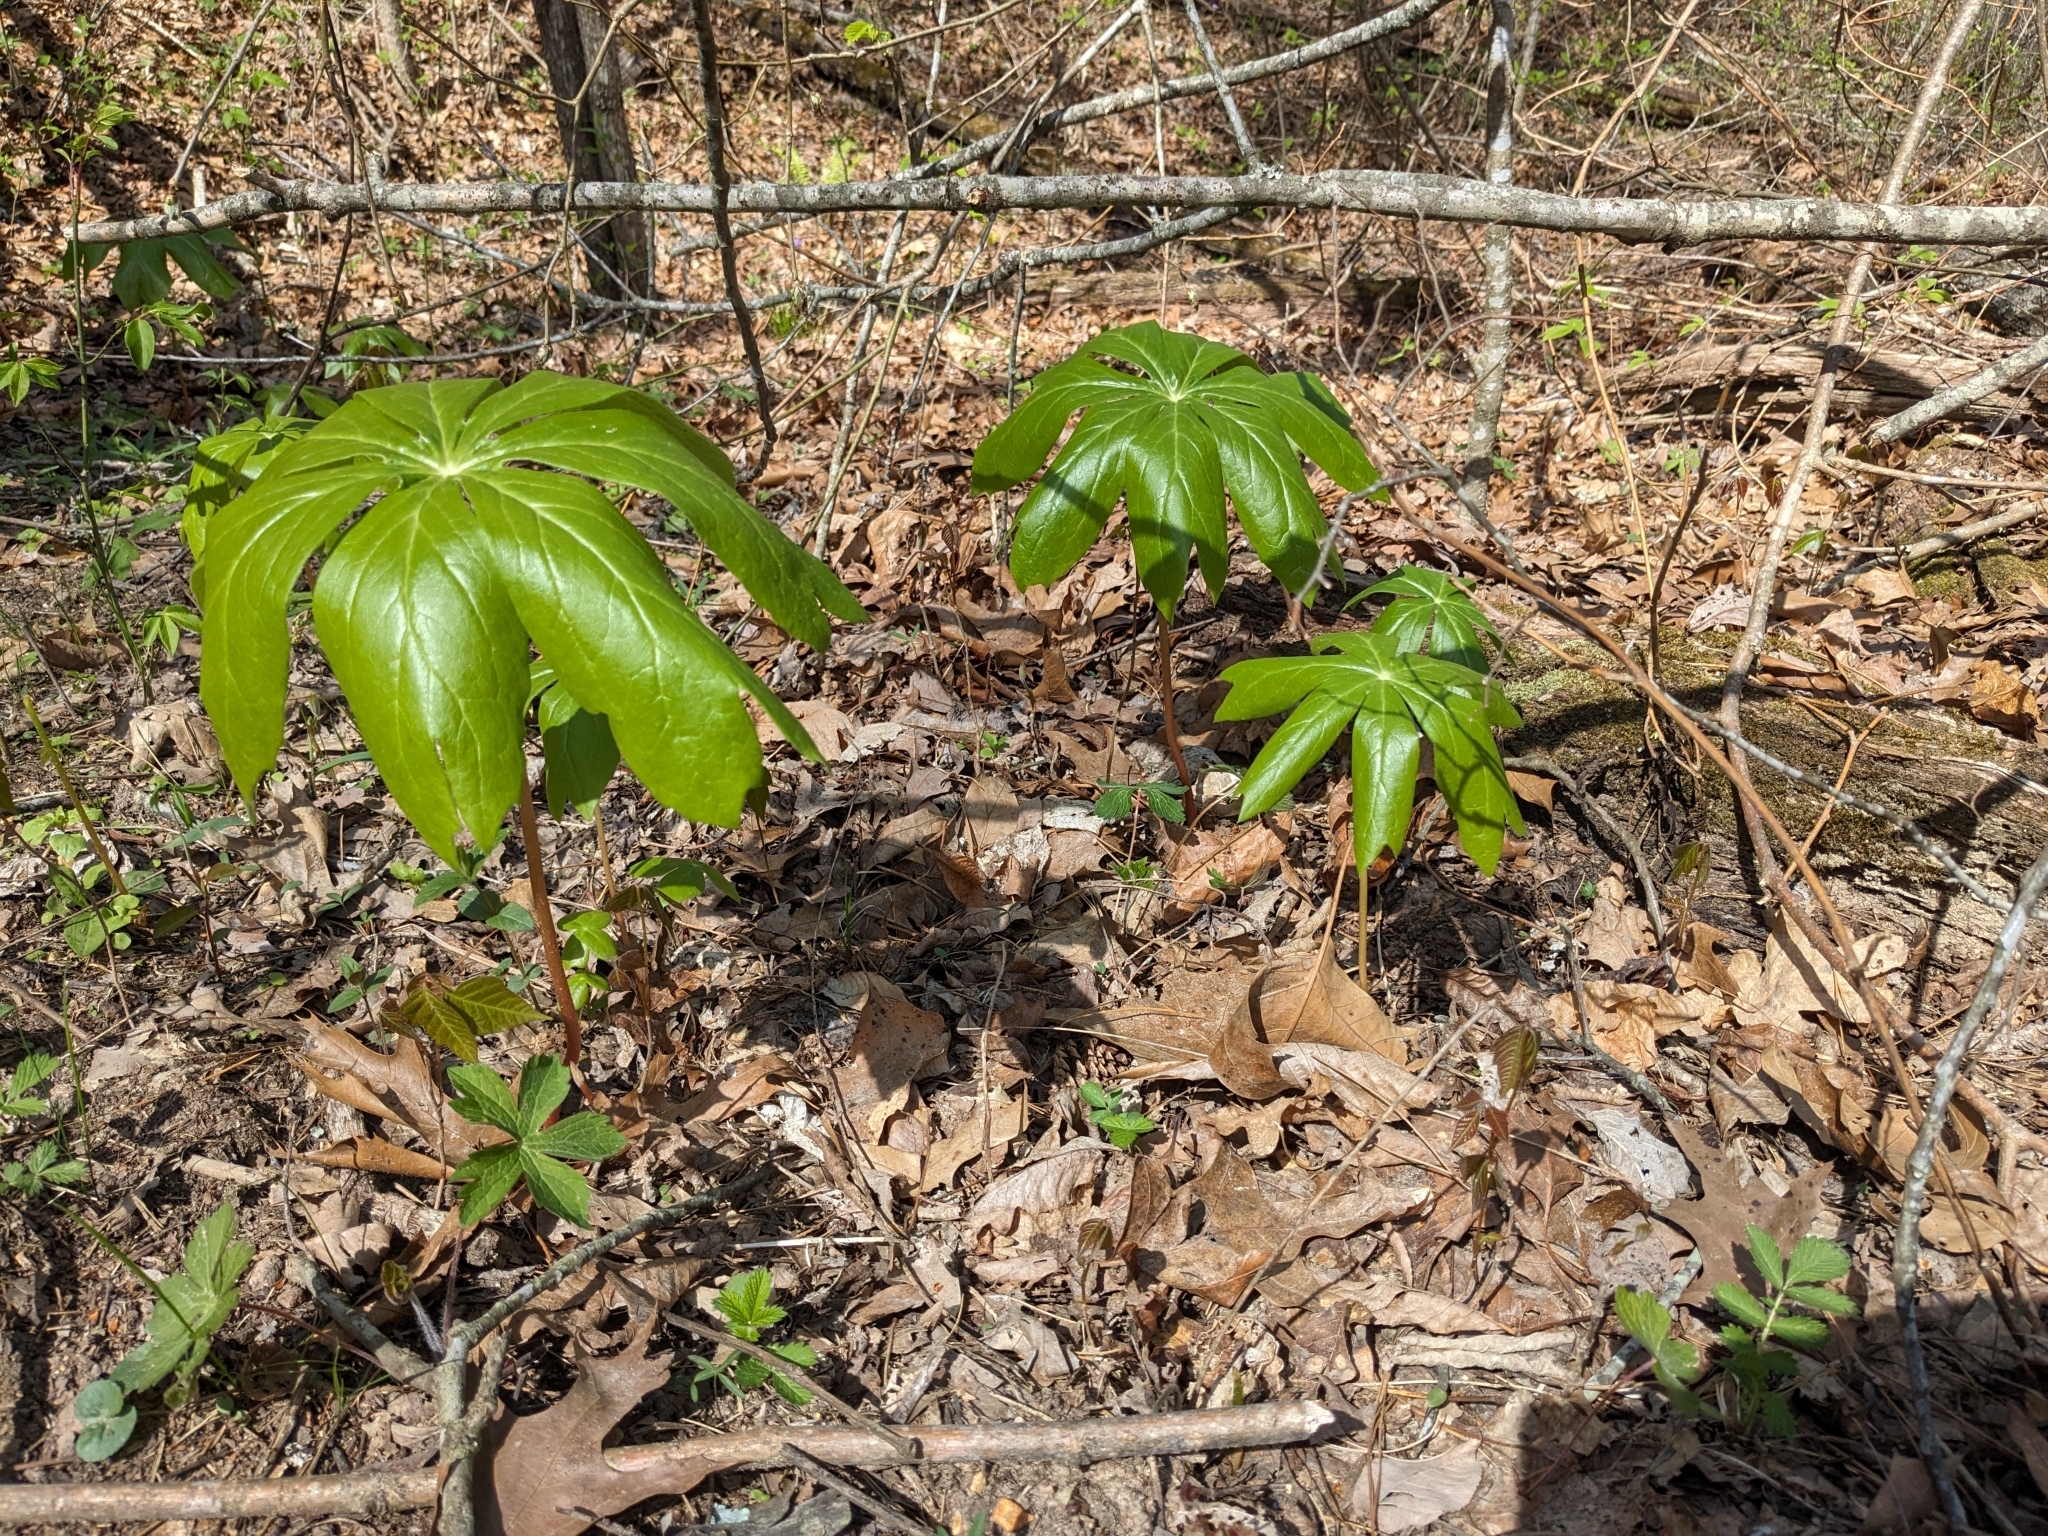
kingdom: Plantae
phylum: Tracheophyta
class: Magnoliopsida
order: Ranunculales
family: Berberidaceae
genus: Podophyllum
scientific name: Podophyllum peltatum
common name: Wild mandrake
